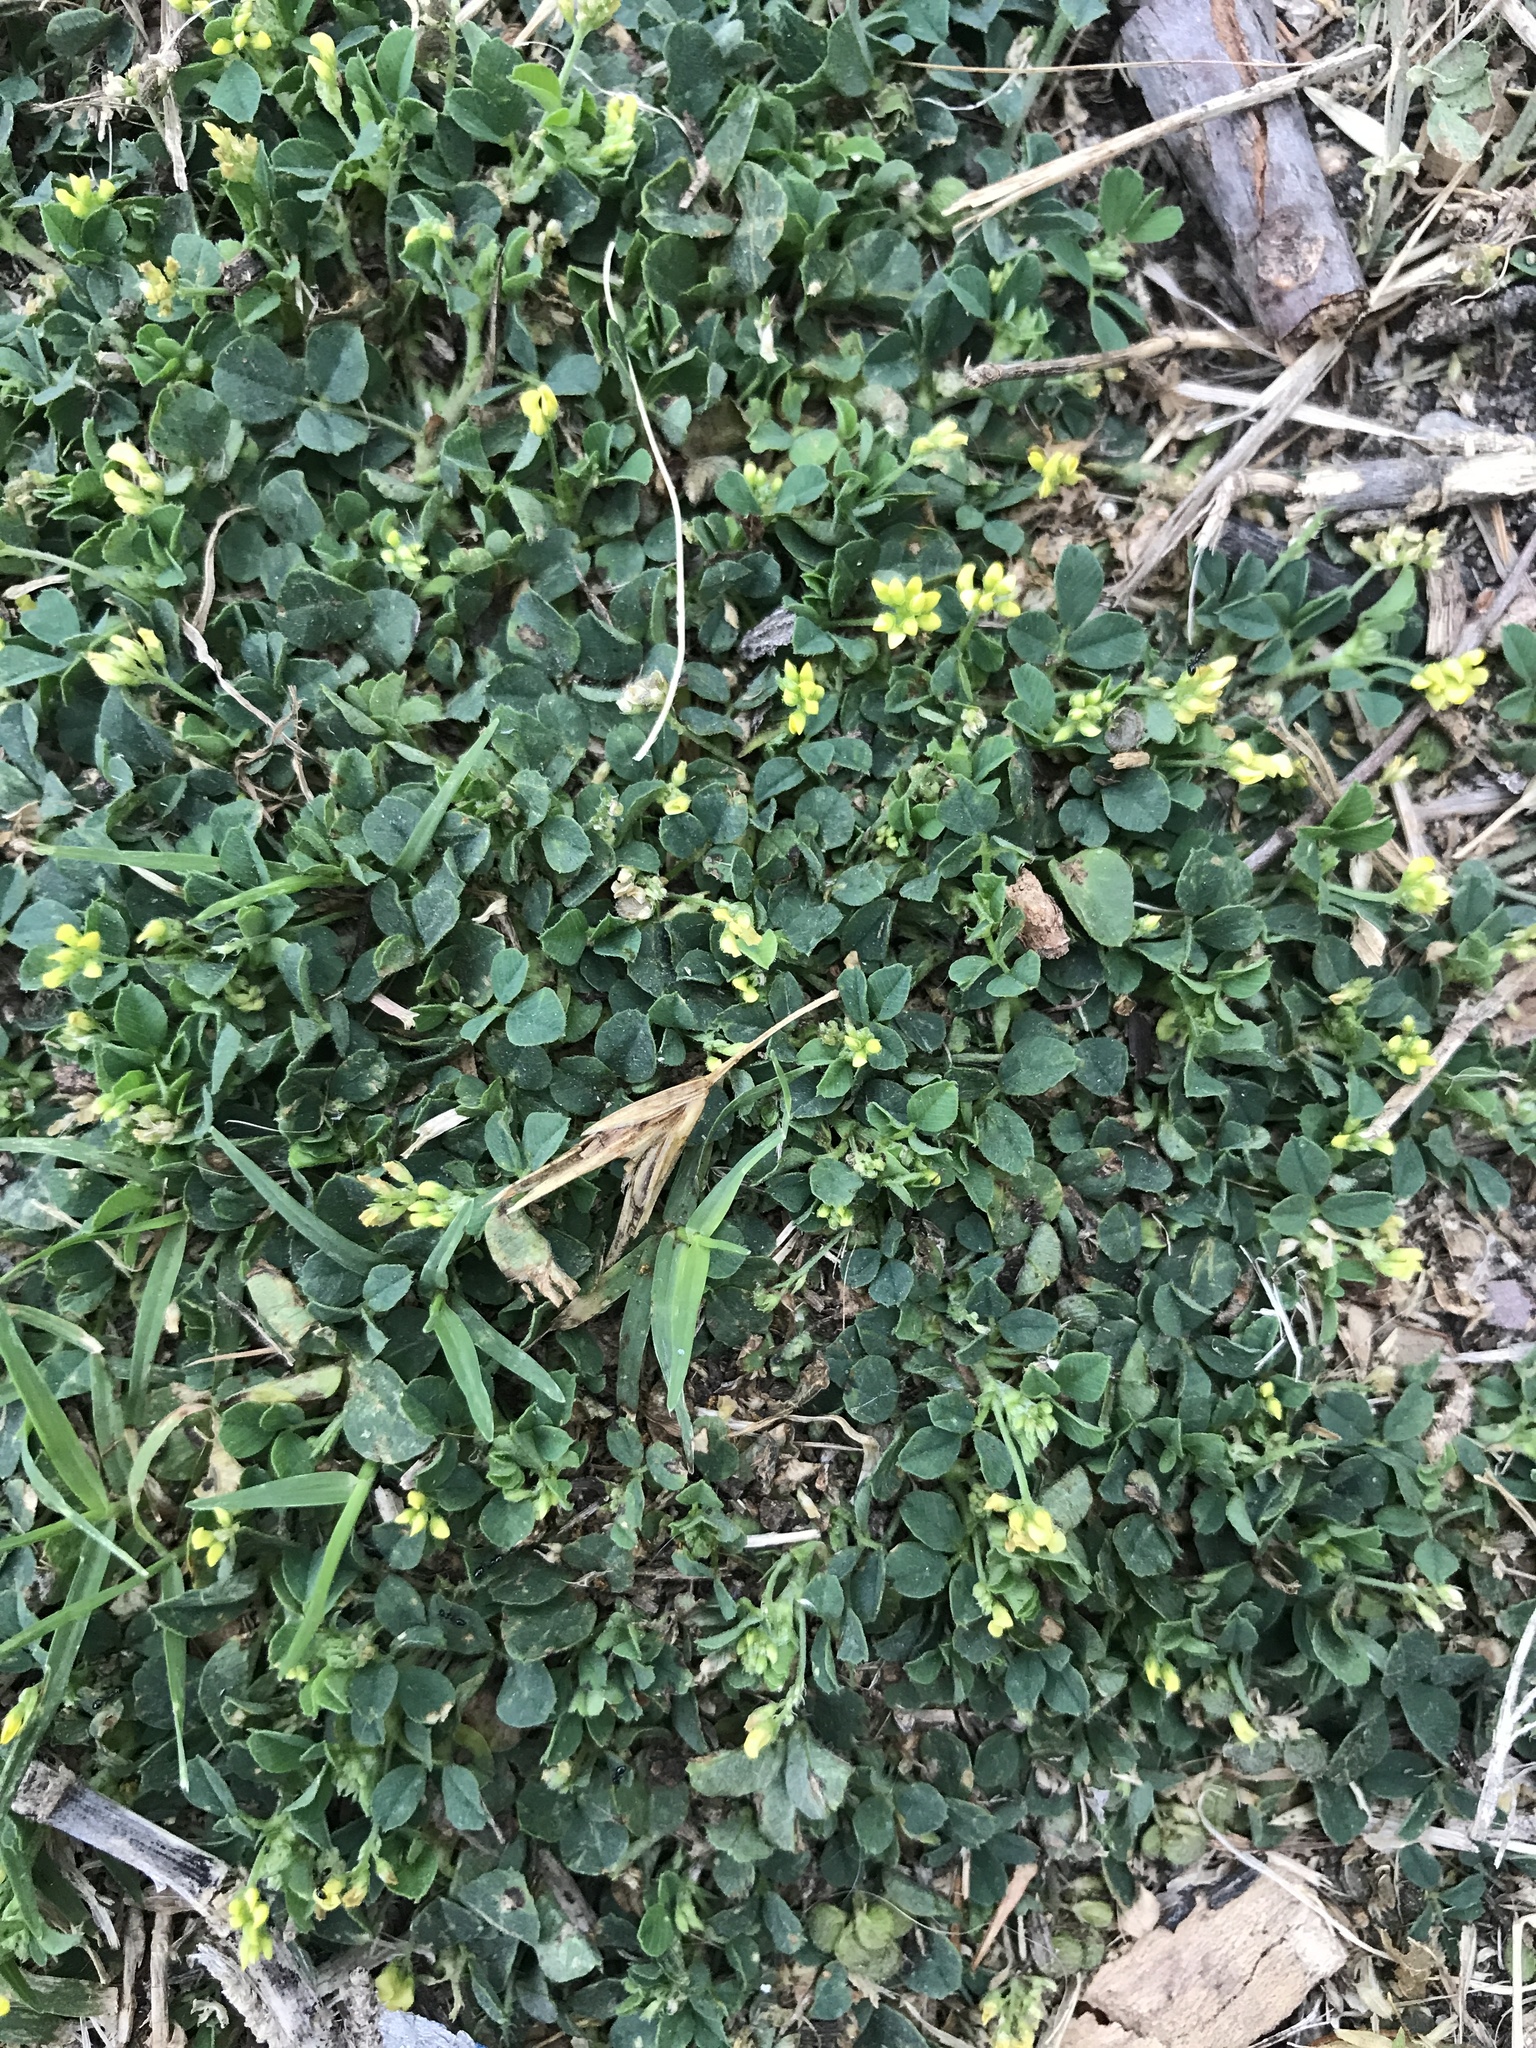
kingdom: Plantae
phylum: Tracheophyta
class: Magnoliopsida
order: Fabales
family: Fabaceae
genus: Medicago
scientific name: Medicago lupulina
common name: Black medick
